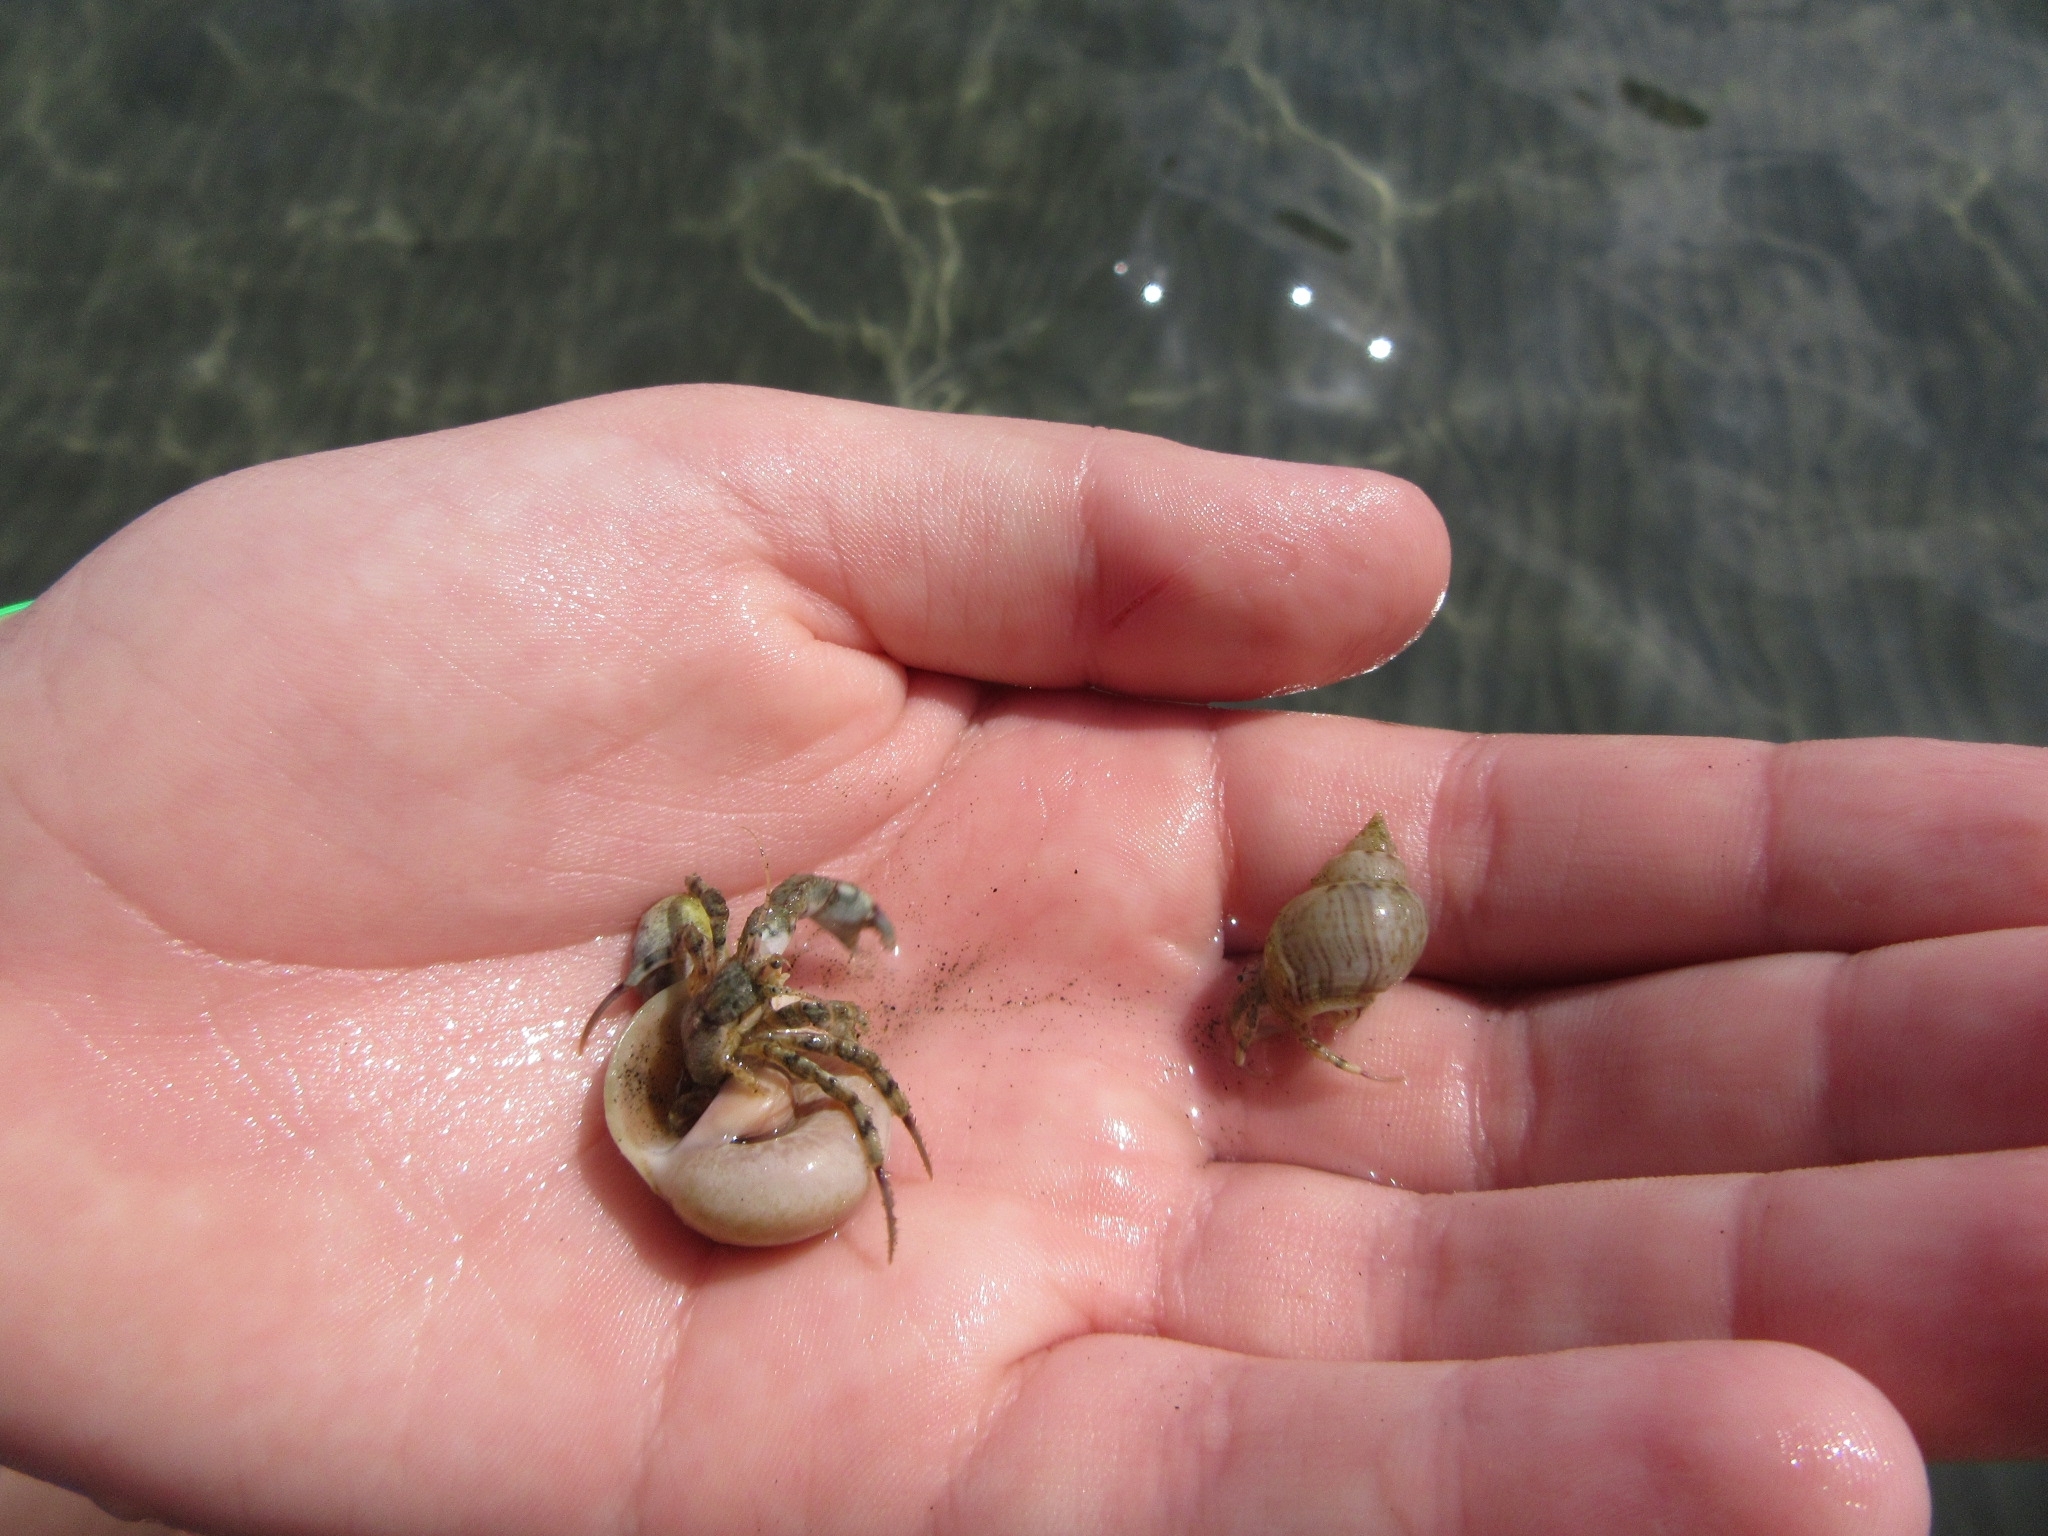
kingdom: Animalia
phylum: Arthropoda
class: Malacostraca
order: Decapoda
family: Diogenidae
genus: Diogenes
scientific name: Diogenes pugilator
